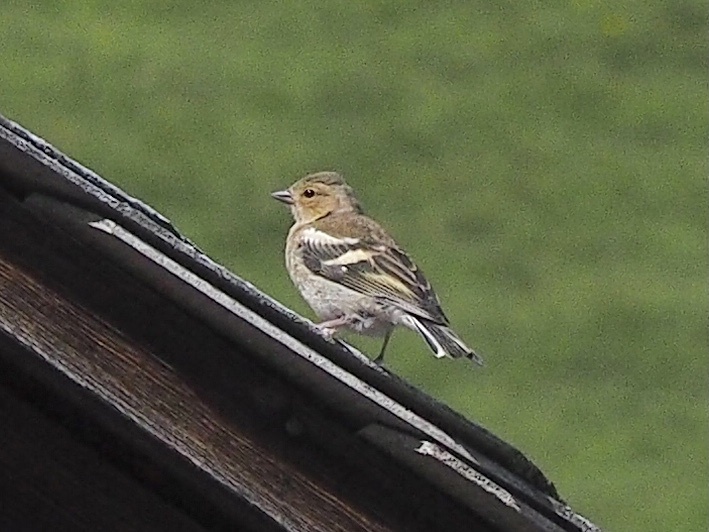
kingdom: Animalia
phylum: Chordata
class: Aves
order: Passeriformes
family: Fringillidae
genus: Fringilla
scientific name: Fringilla coelebs
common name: Common chaffinch
